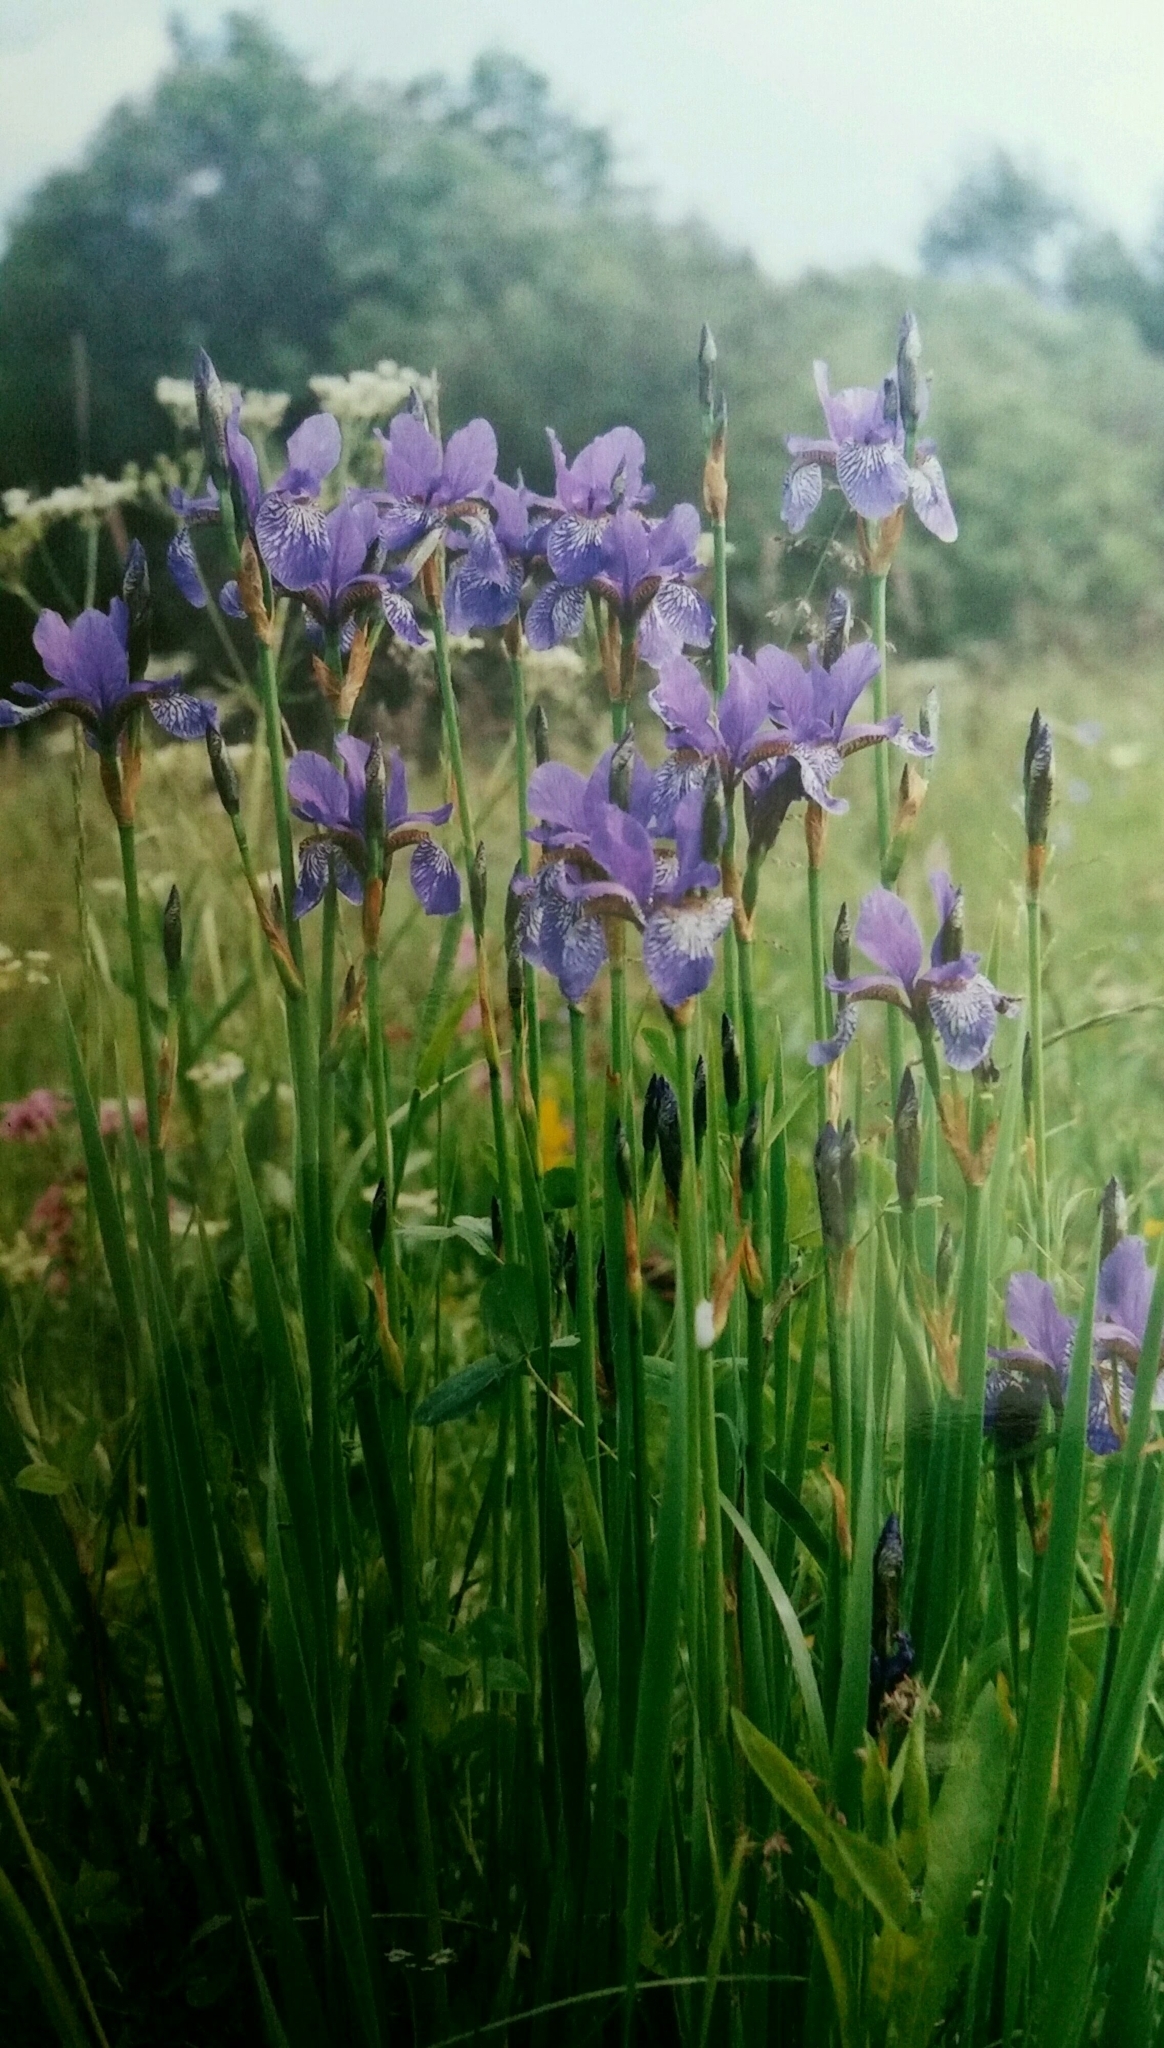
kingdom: Plantae
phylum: Tracheophyta
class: Liliopsida
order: Asparagales
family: Iridaceae
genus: Iris
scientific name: Iris sibirica
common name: Siberian iris
